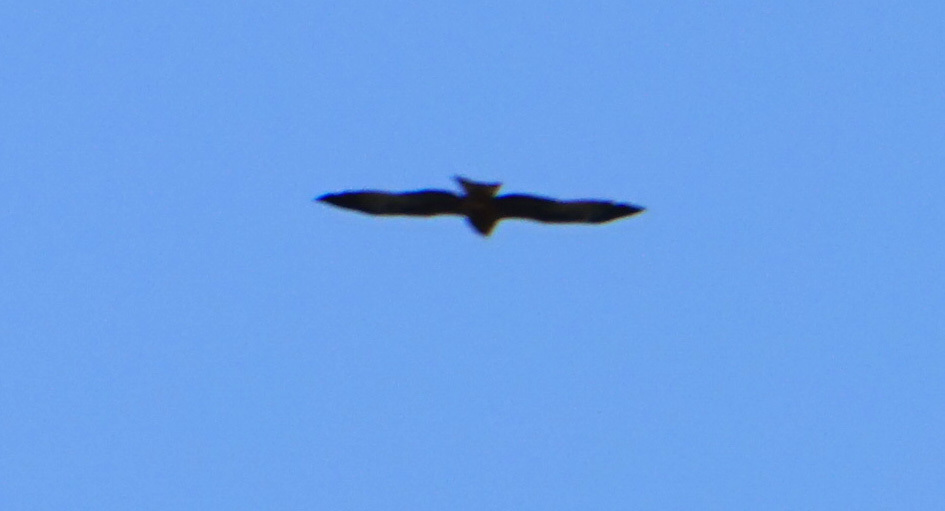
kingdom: Animalia
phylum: Chordata
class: Aves
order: Accipitriformes
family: Accipitridae
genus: Milvus
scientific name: Milvus migrans
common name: Black kite
